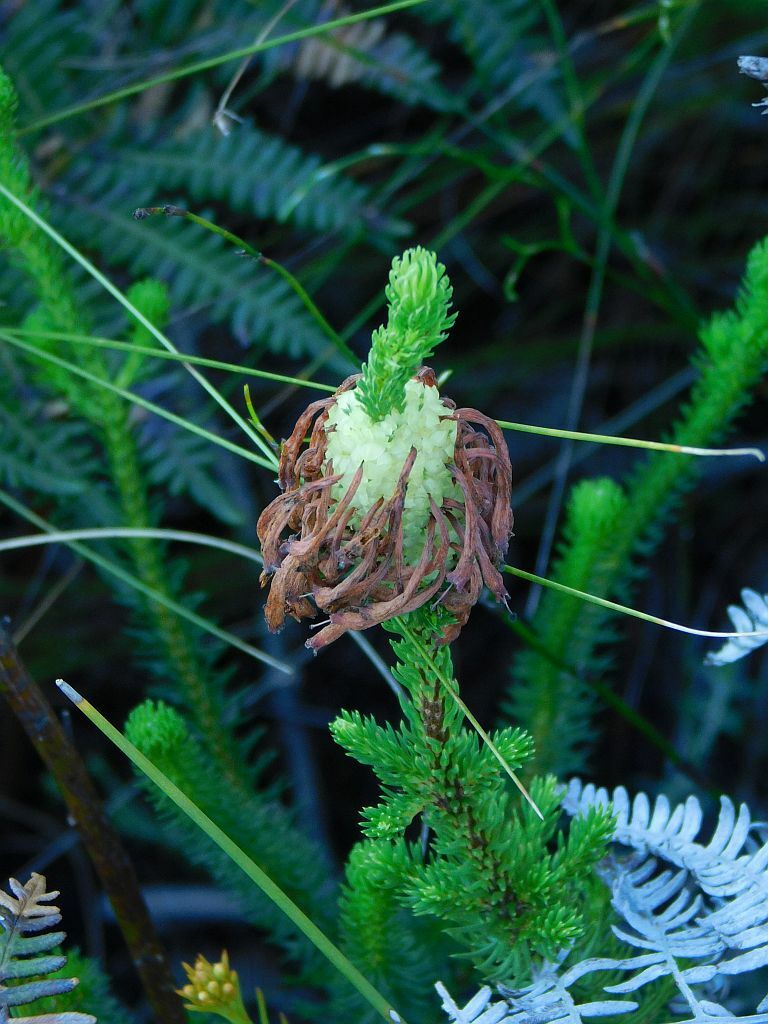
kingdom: Plantae
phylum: Tracheophyta
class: Magnoliopsida
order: Ericales
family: Ericaceae
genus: Erica
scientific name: Erica sessiliflora
